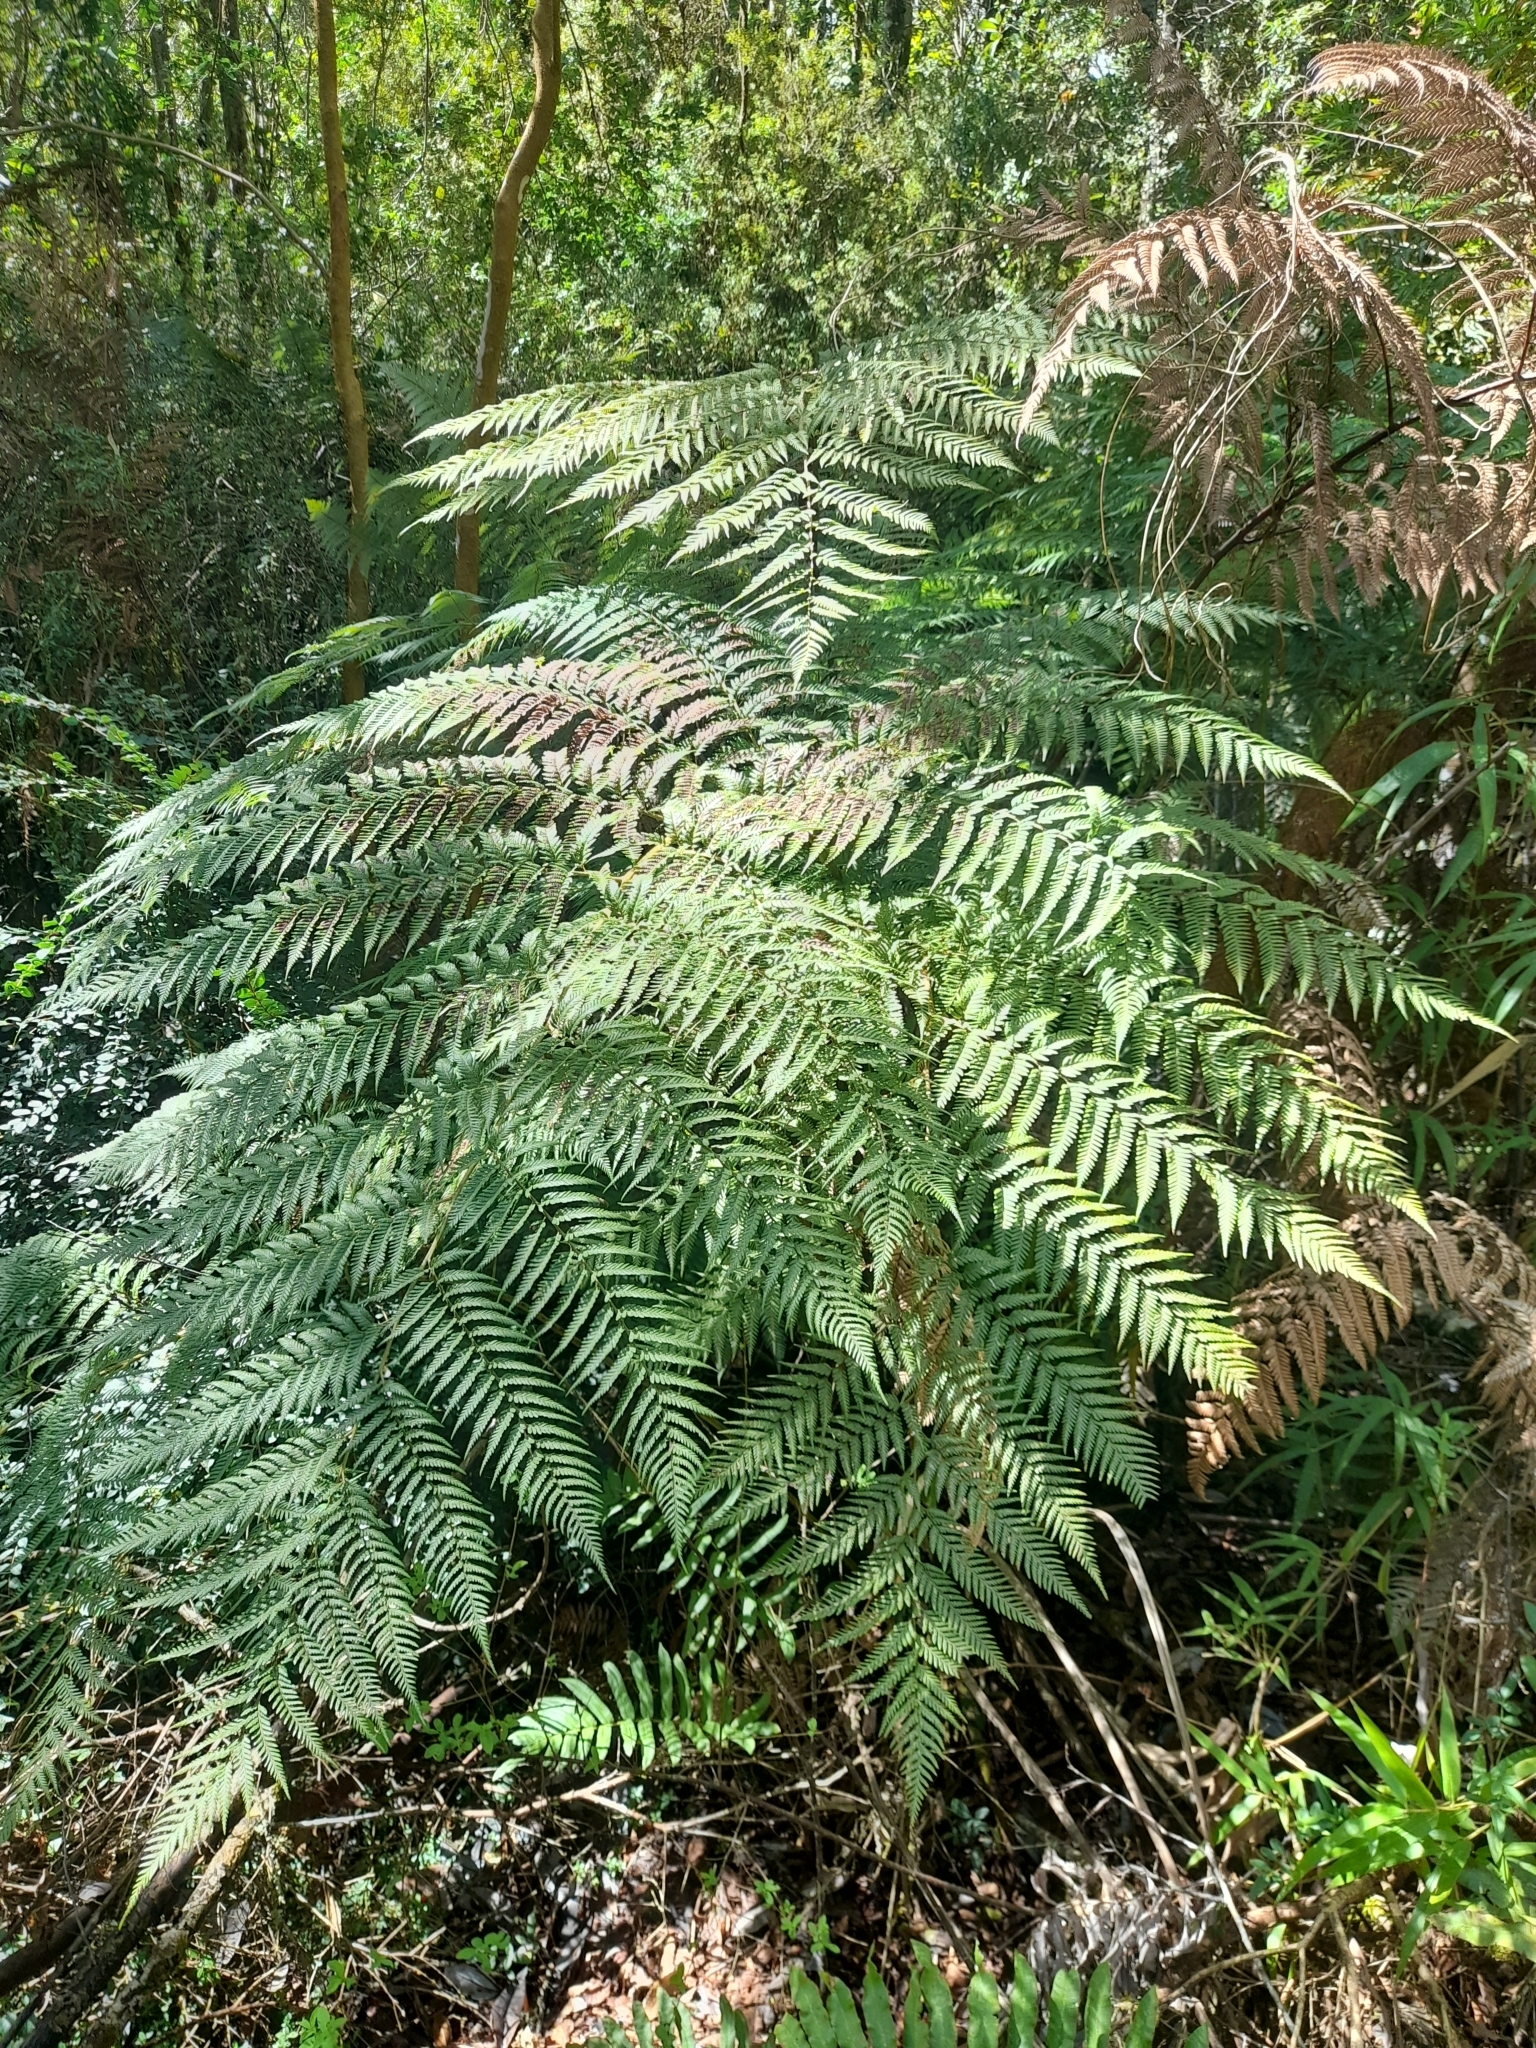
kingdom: Plantae
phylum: Tracheophyta
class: Polypodiopsida
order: Cyatheales
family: Dicksoniaceae
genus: Lophosoria
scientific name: Lophosoria quadripinnata
